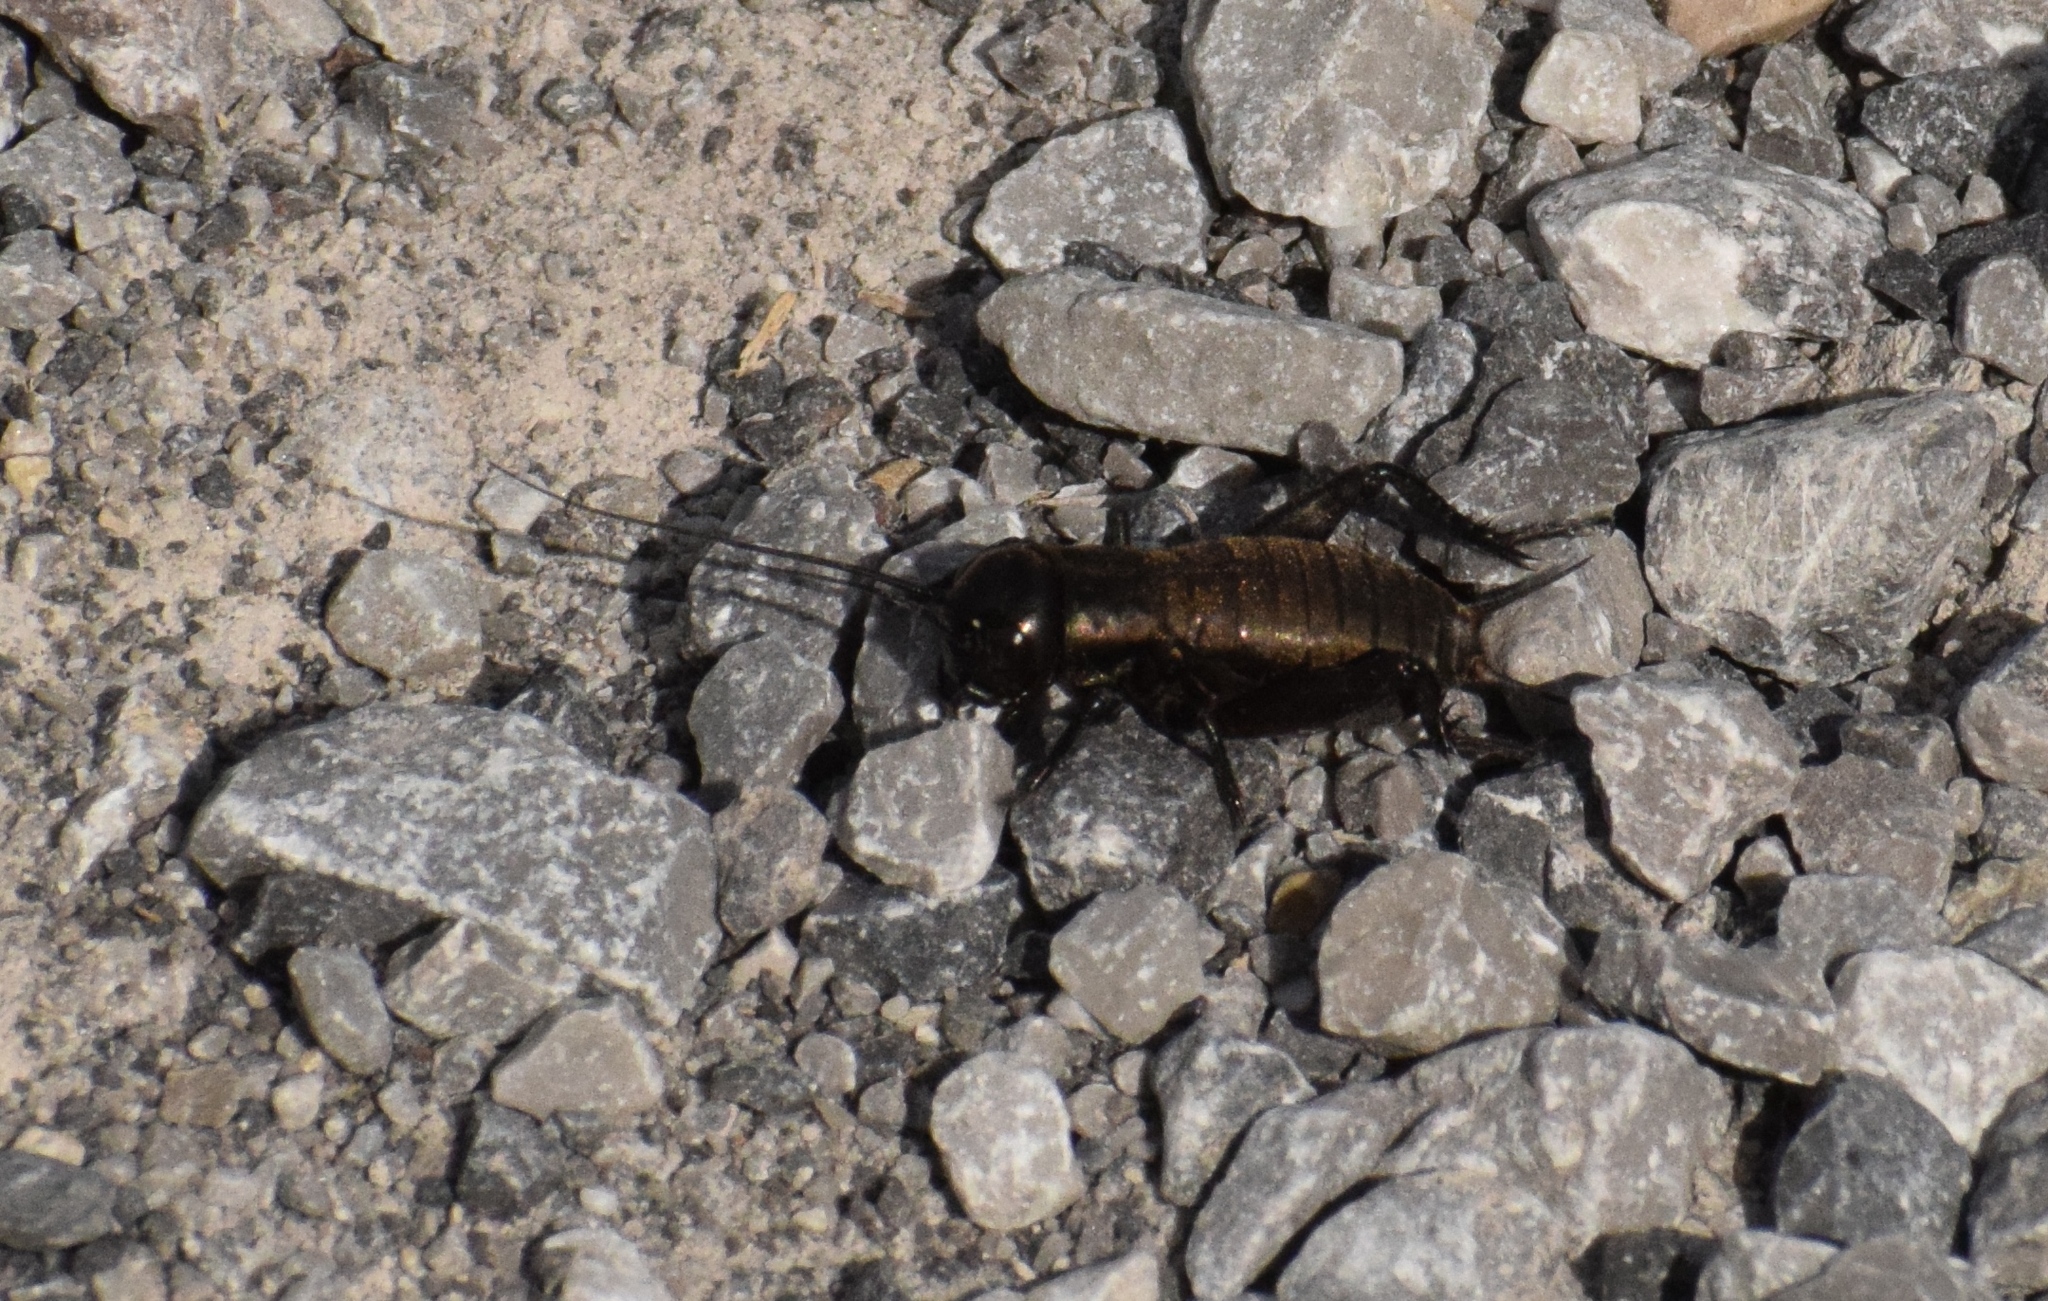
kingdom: Animalia
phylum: Arthropoda
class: Insecta
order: Orthoptera
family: Gryllidae
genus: Gryllus
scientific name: Gryllus campestris
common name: Field cricket
